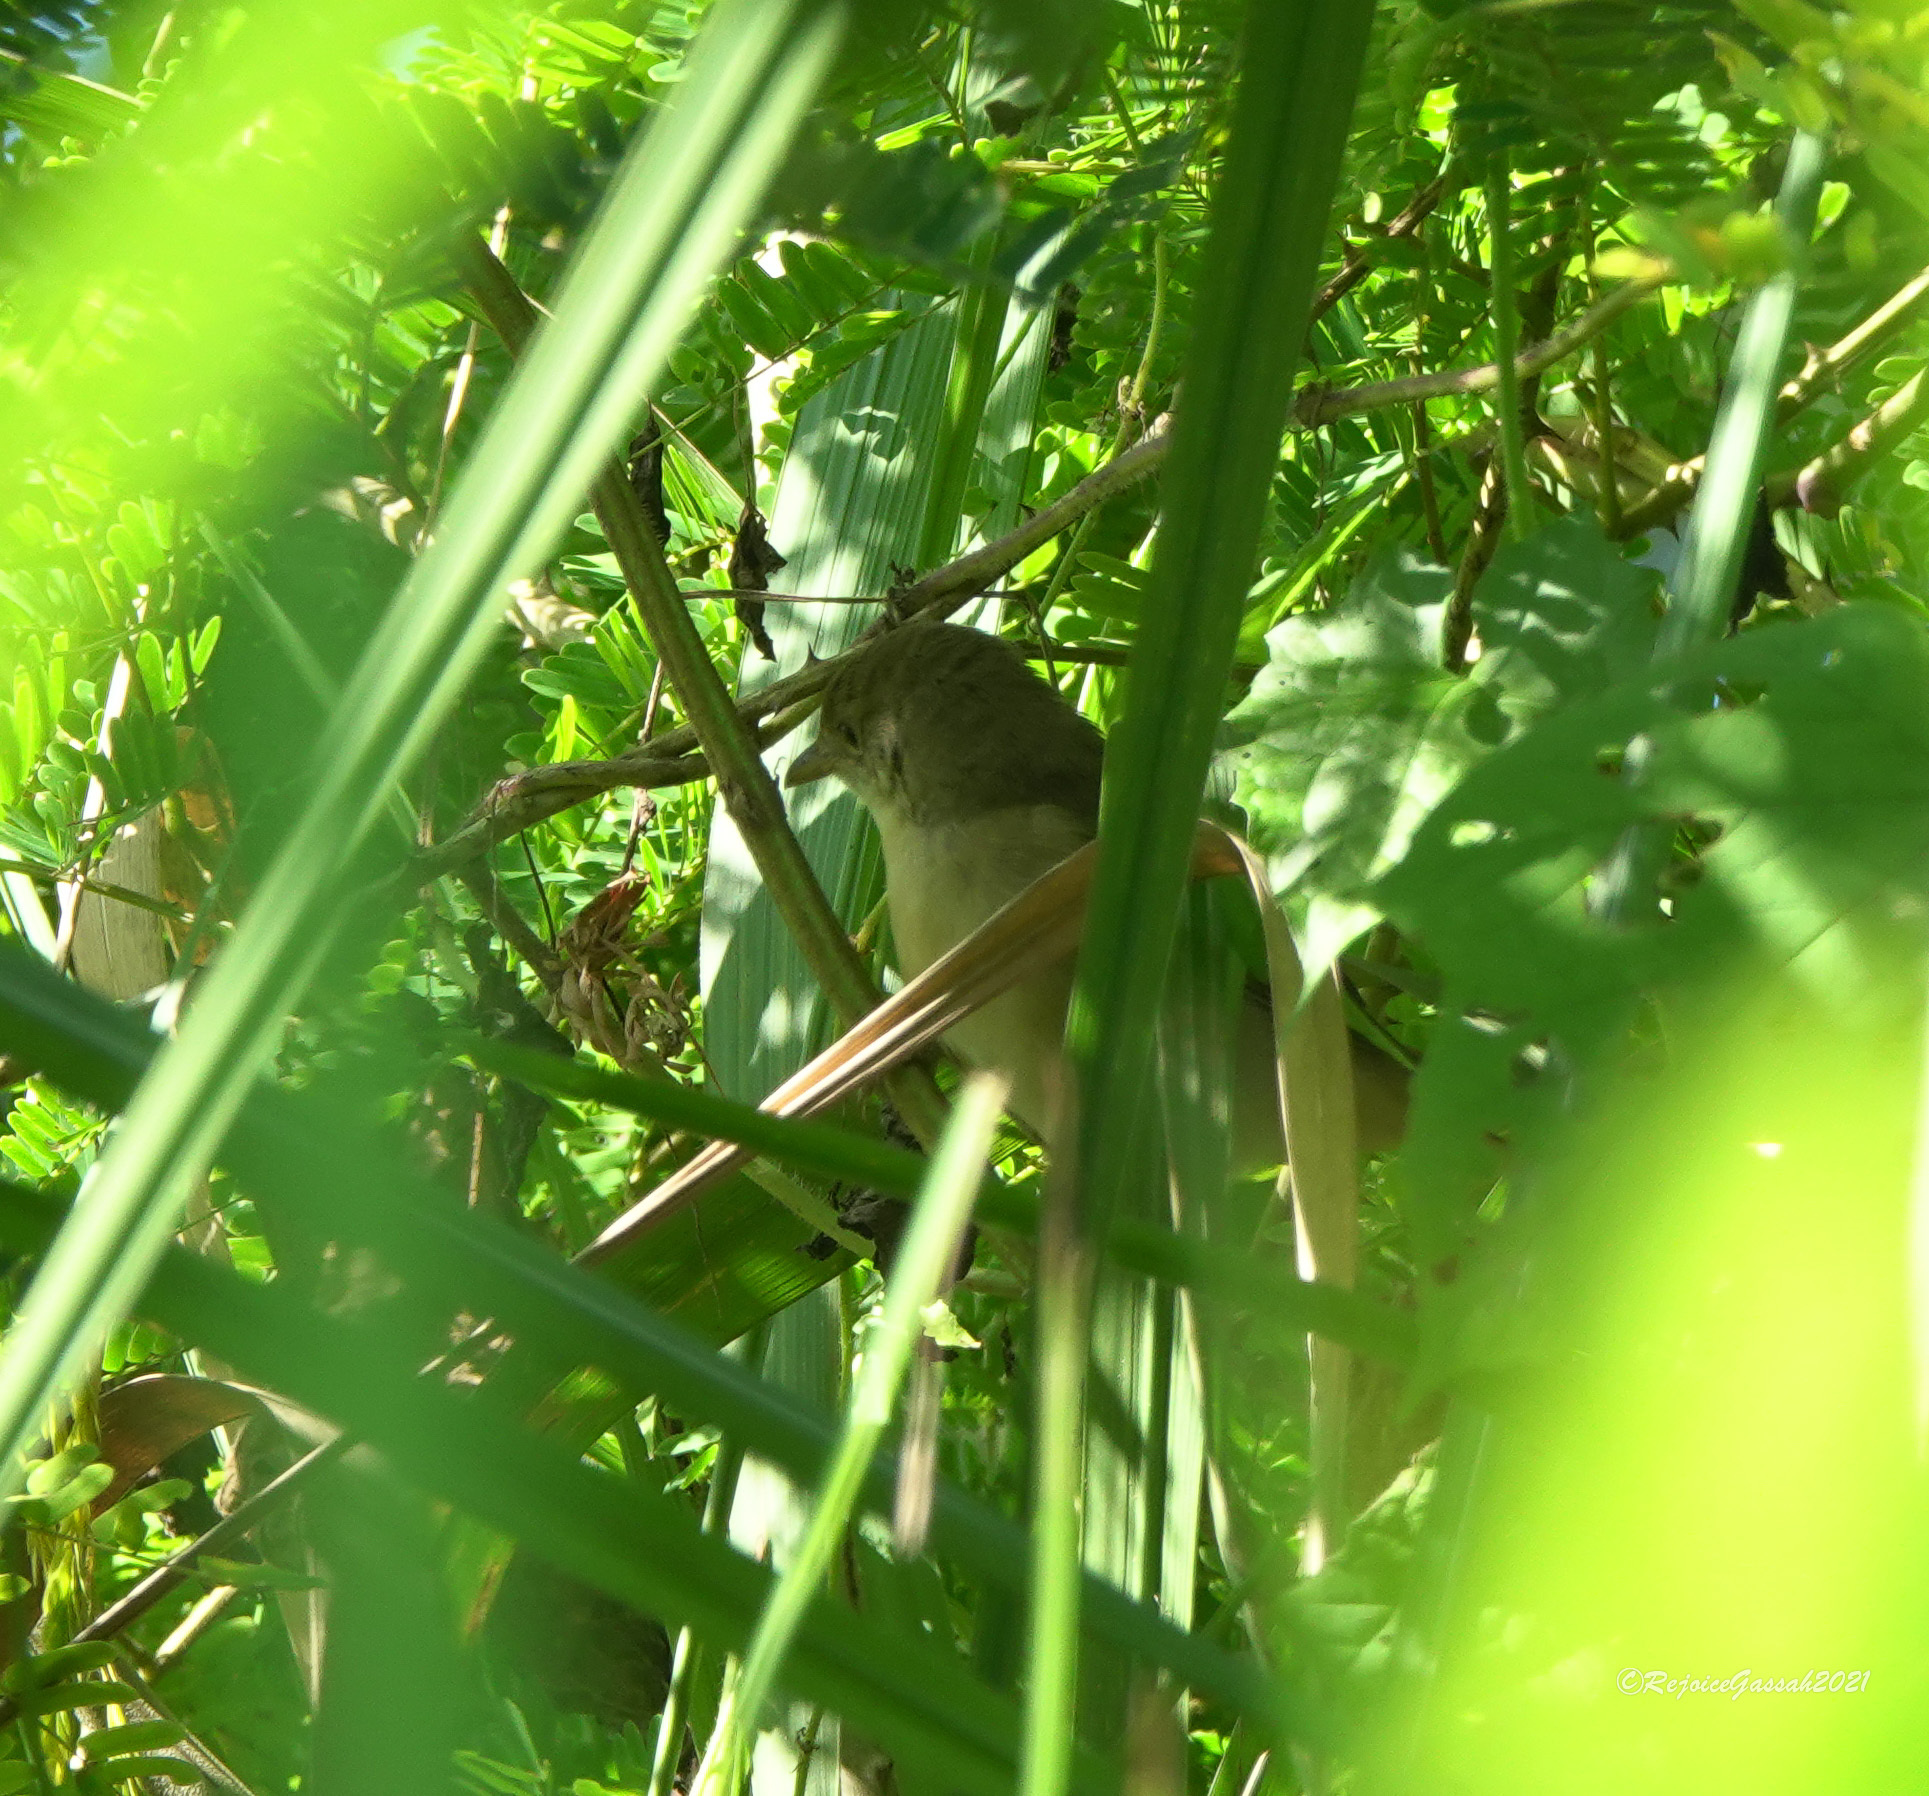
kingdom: Animalia
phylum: Chordata
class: Aves
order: Passeriformes
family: Acrocephalidae
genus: Iduna
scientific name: Iduna aedon
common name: Thick-billed warbler
